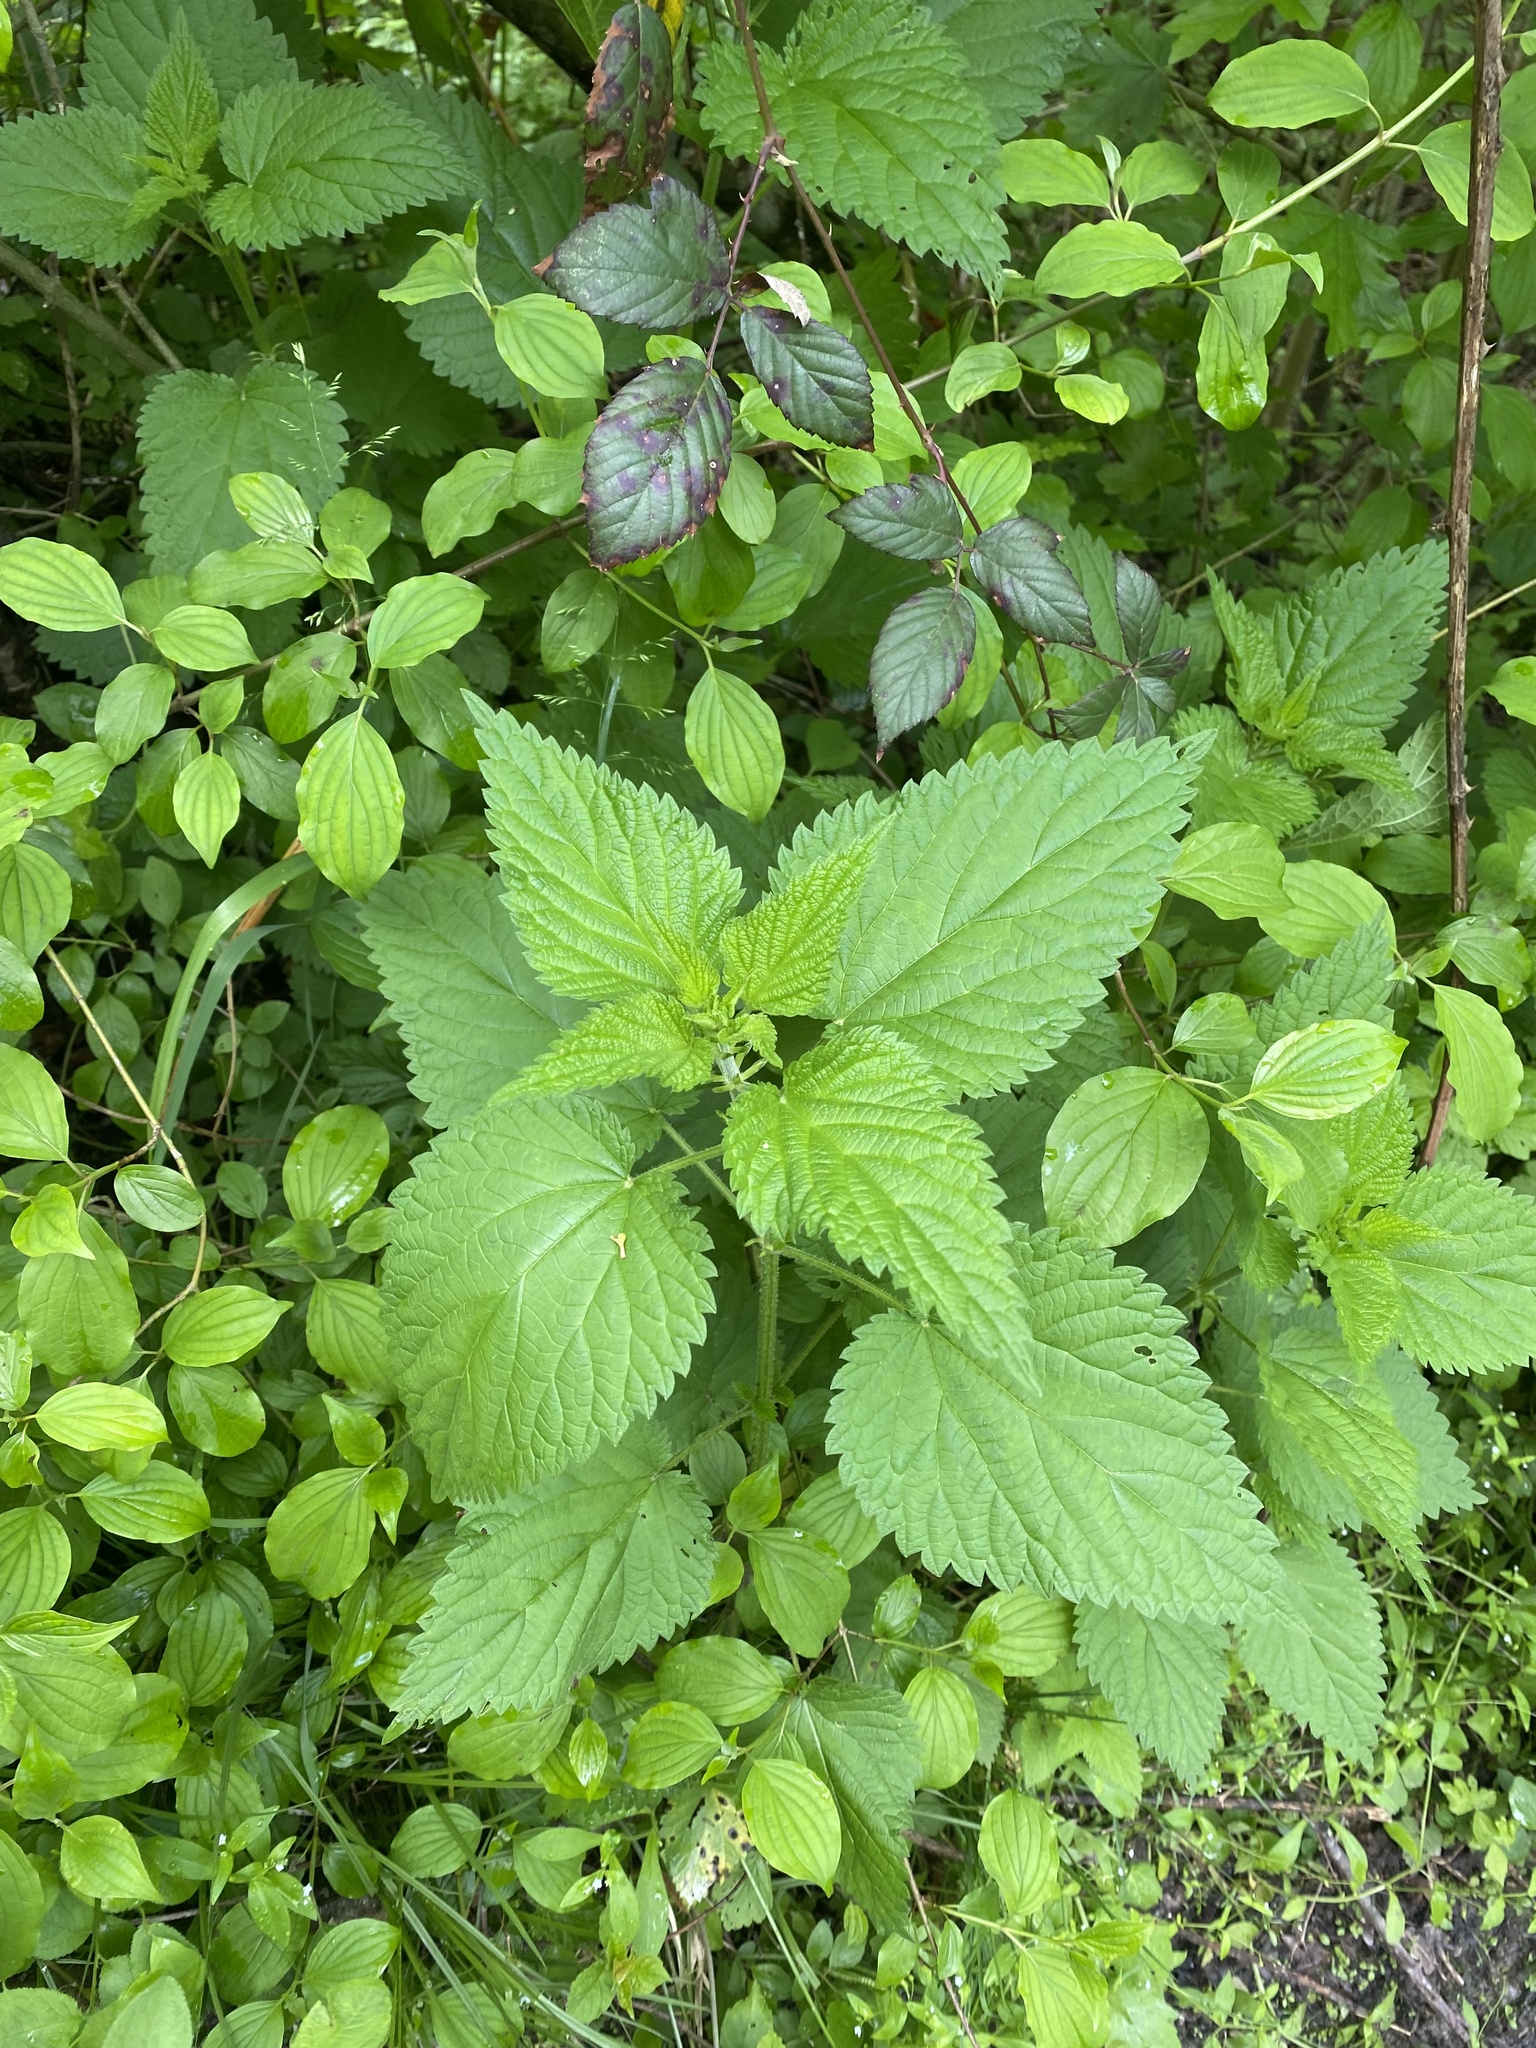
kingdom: Plantae
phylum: Tracheophyta
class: Magnoliopsida
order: Rosales
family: Urticaceae
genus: Urtica
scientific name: Urtica dioica
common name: Common nettle
